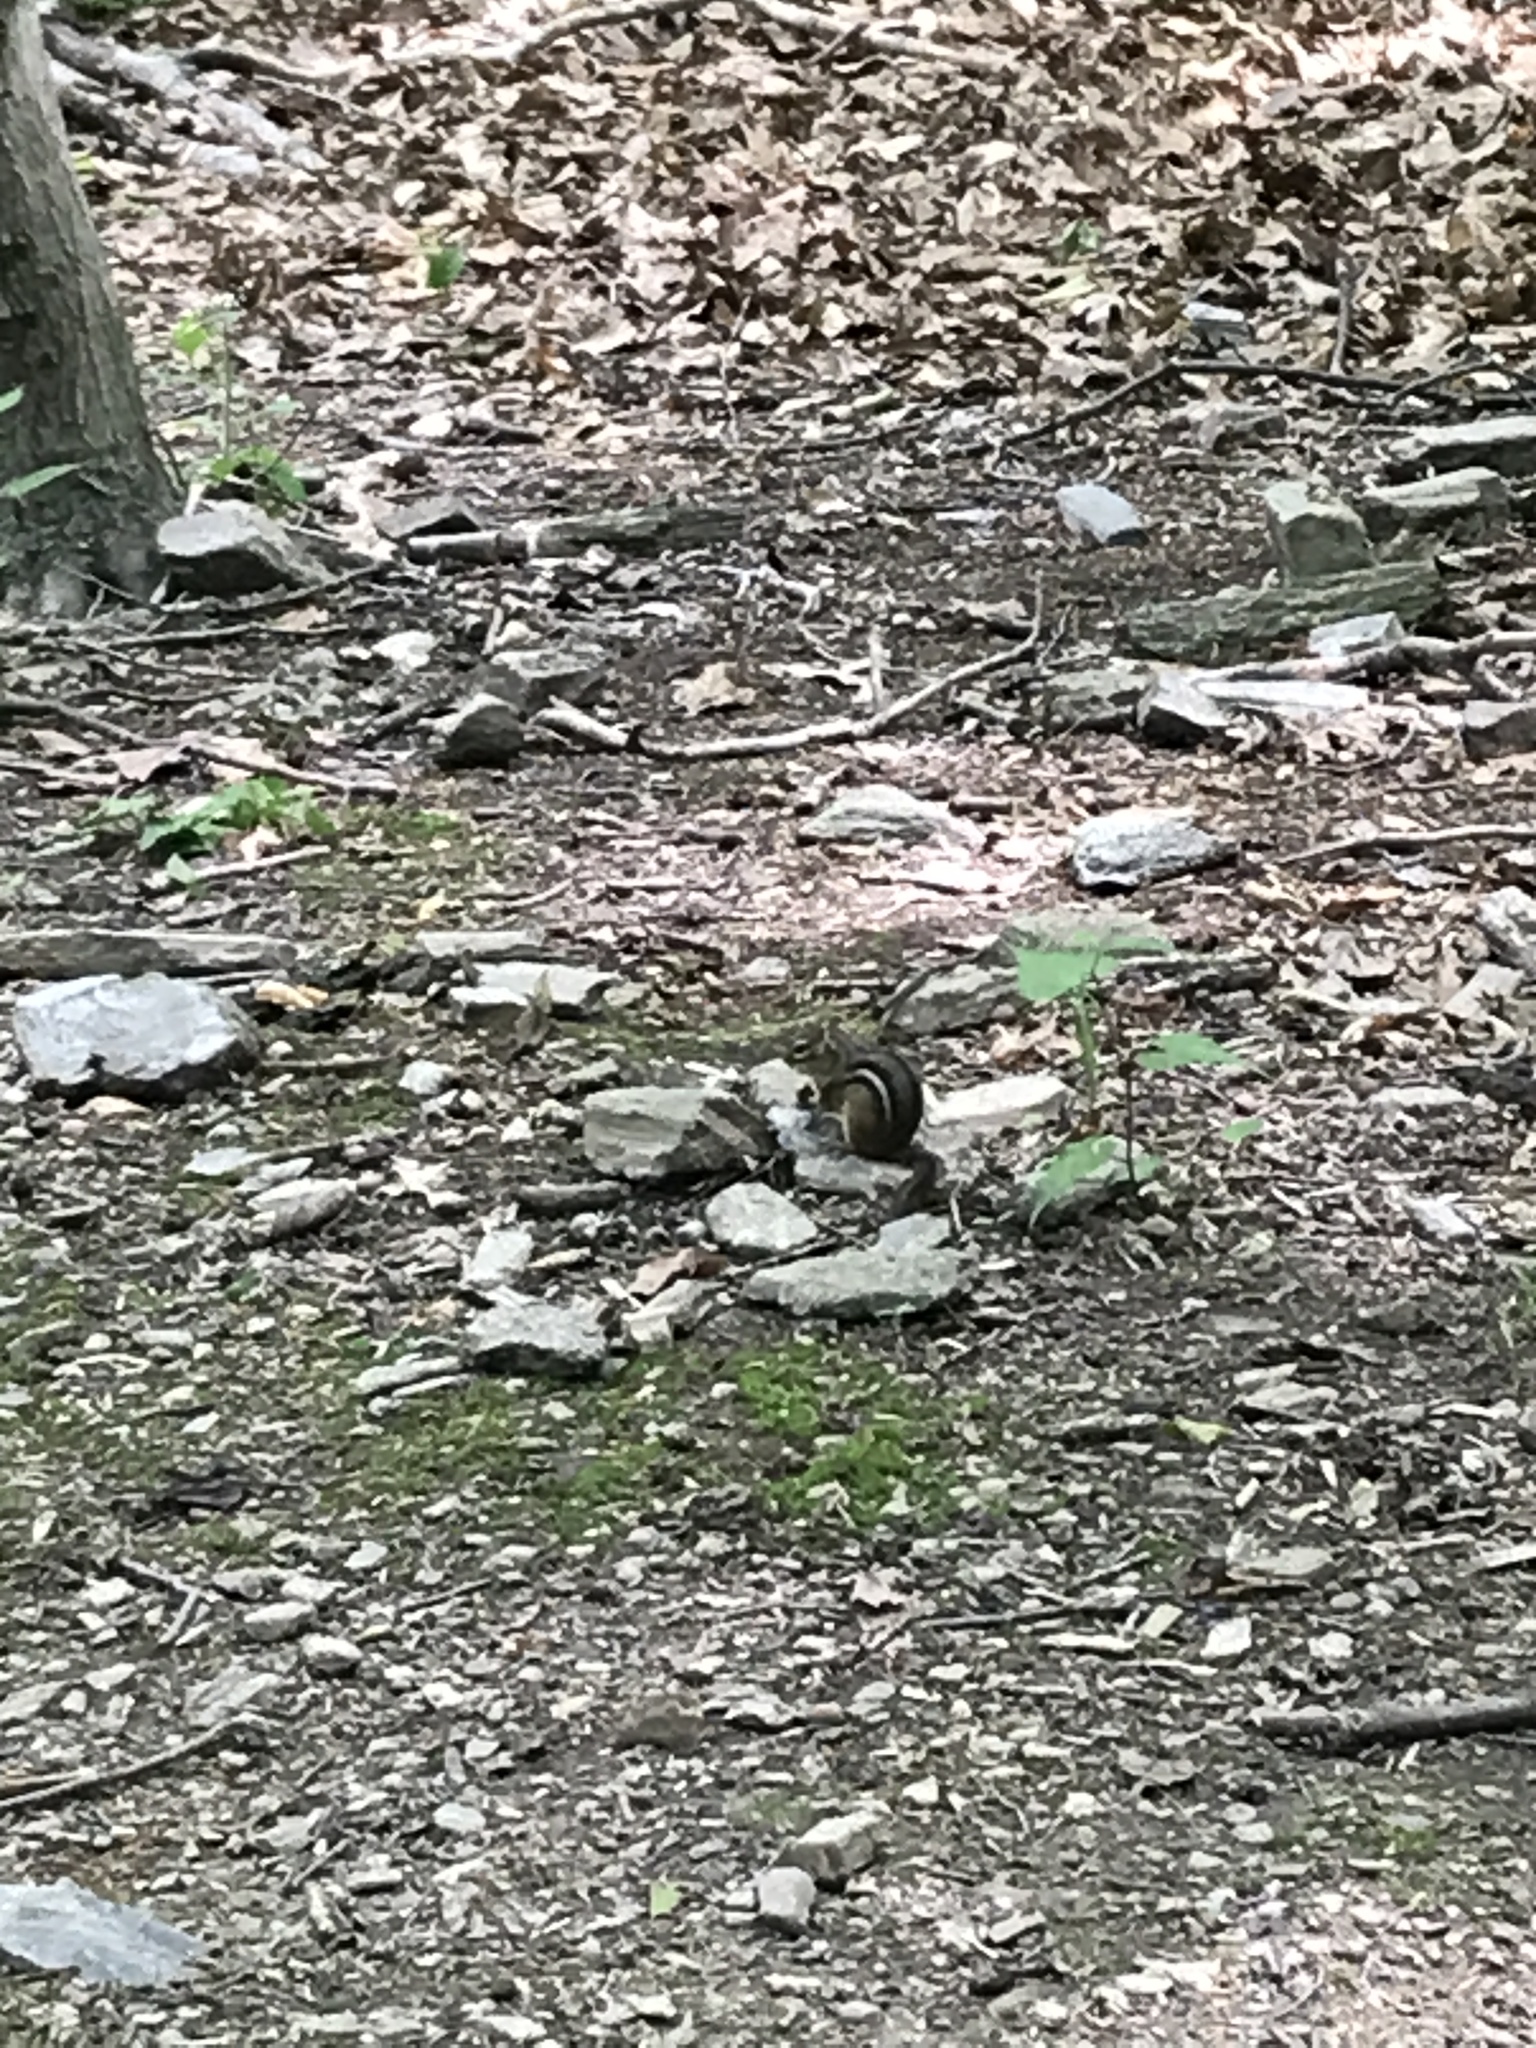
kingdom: Animalia
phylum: Chordata
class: Mammalia
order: Rodentia
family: Sciuridae
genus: Tamias
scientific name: Tamias striatus
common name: Eastern chipmunk
